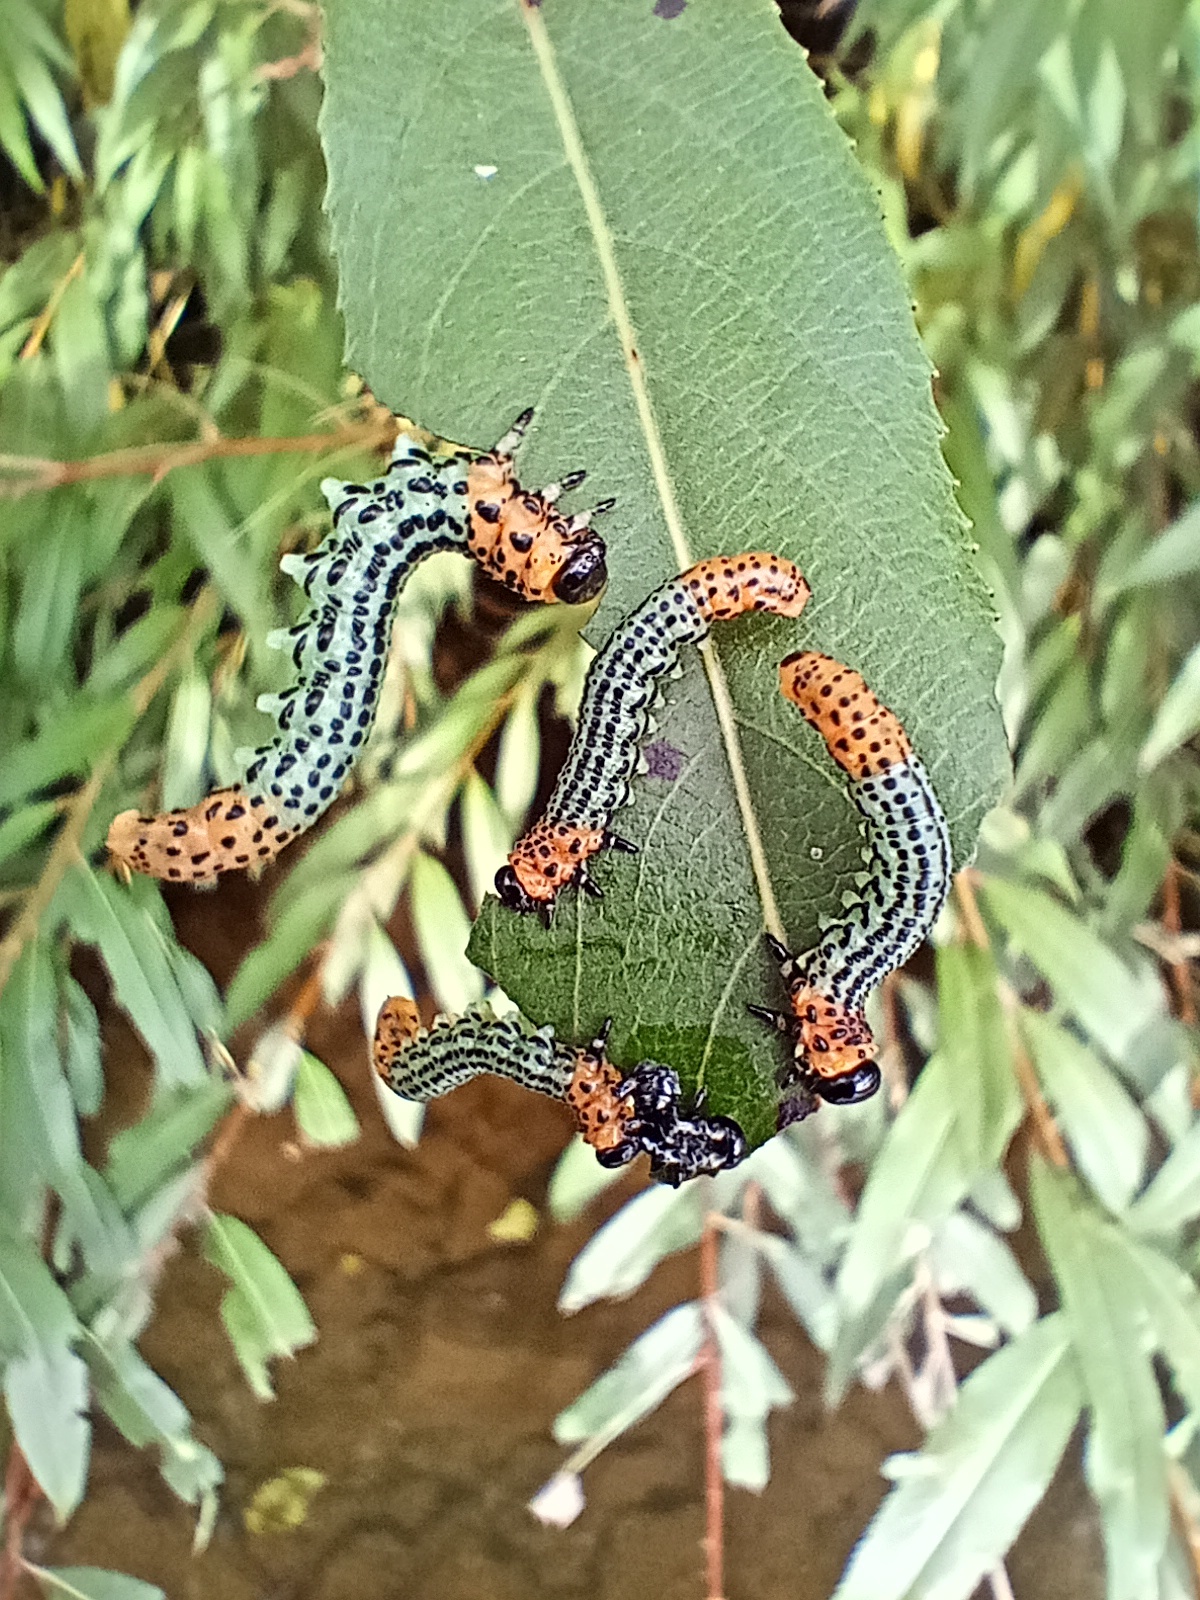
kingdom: Animalia
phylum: Arthropoda
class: Insecta
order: Hymenoptera
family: Tenthredinidae
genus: Nematus
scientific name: Nematus salicis
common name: Willow sawfly
